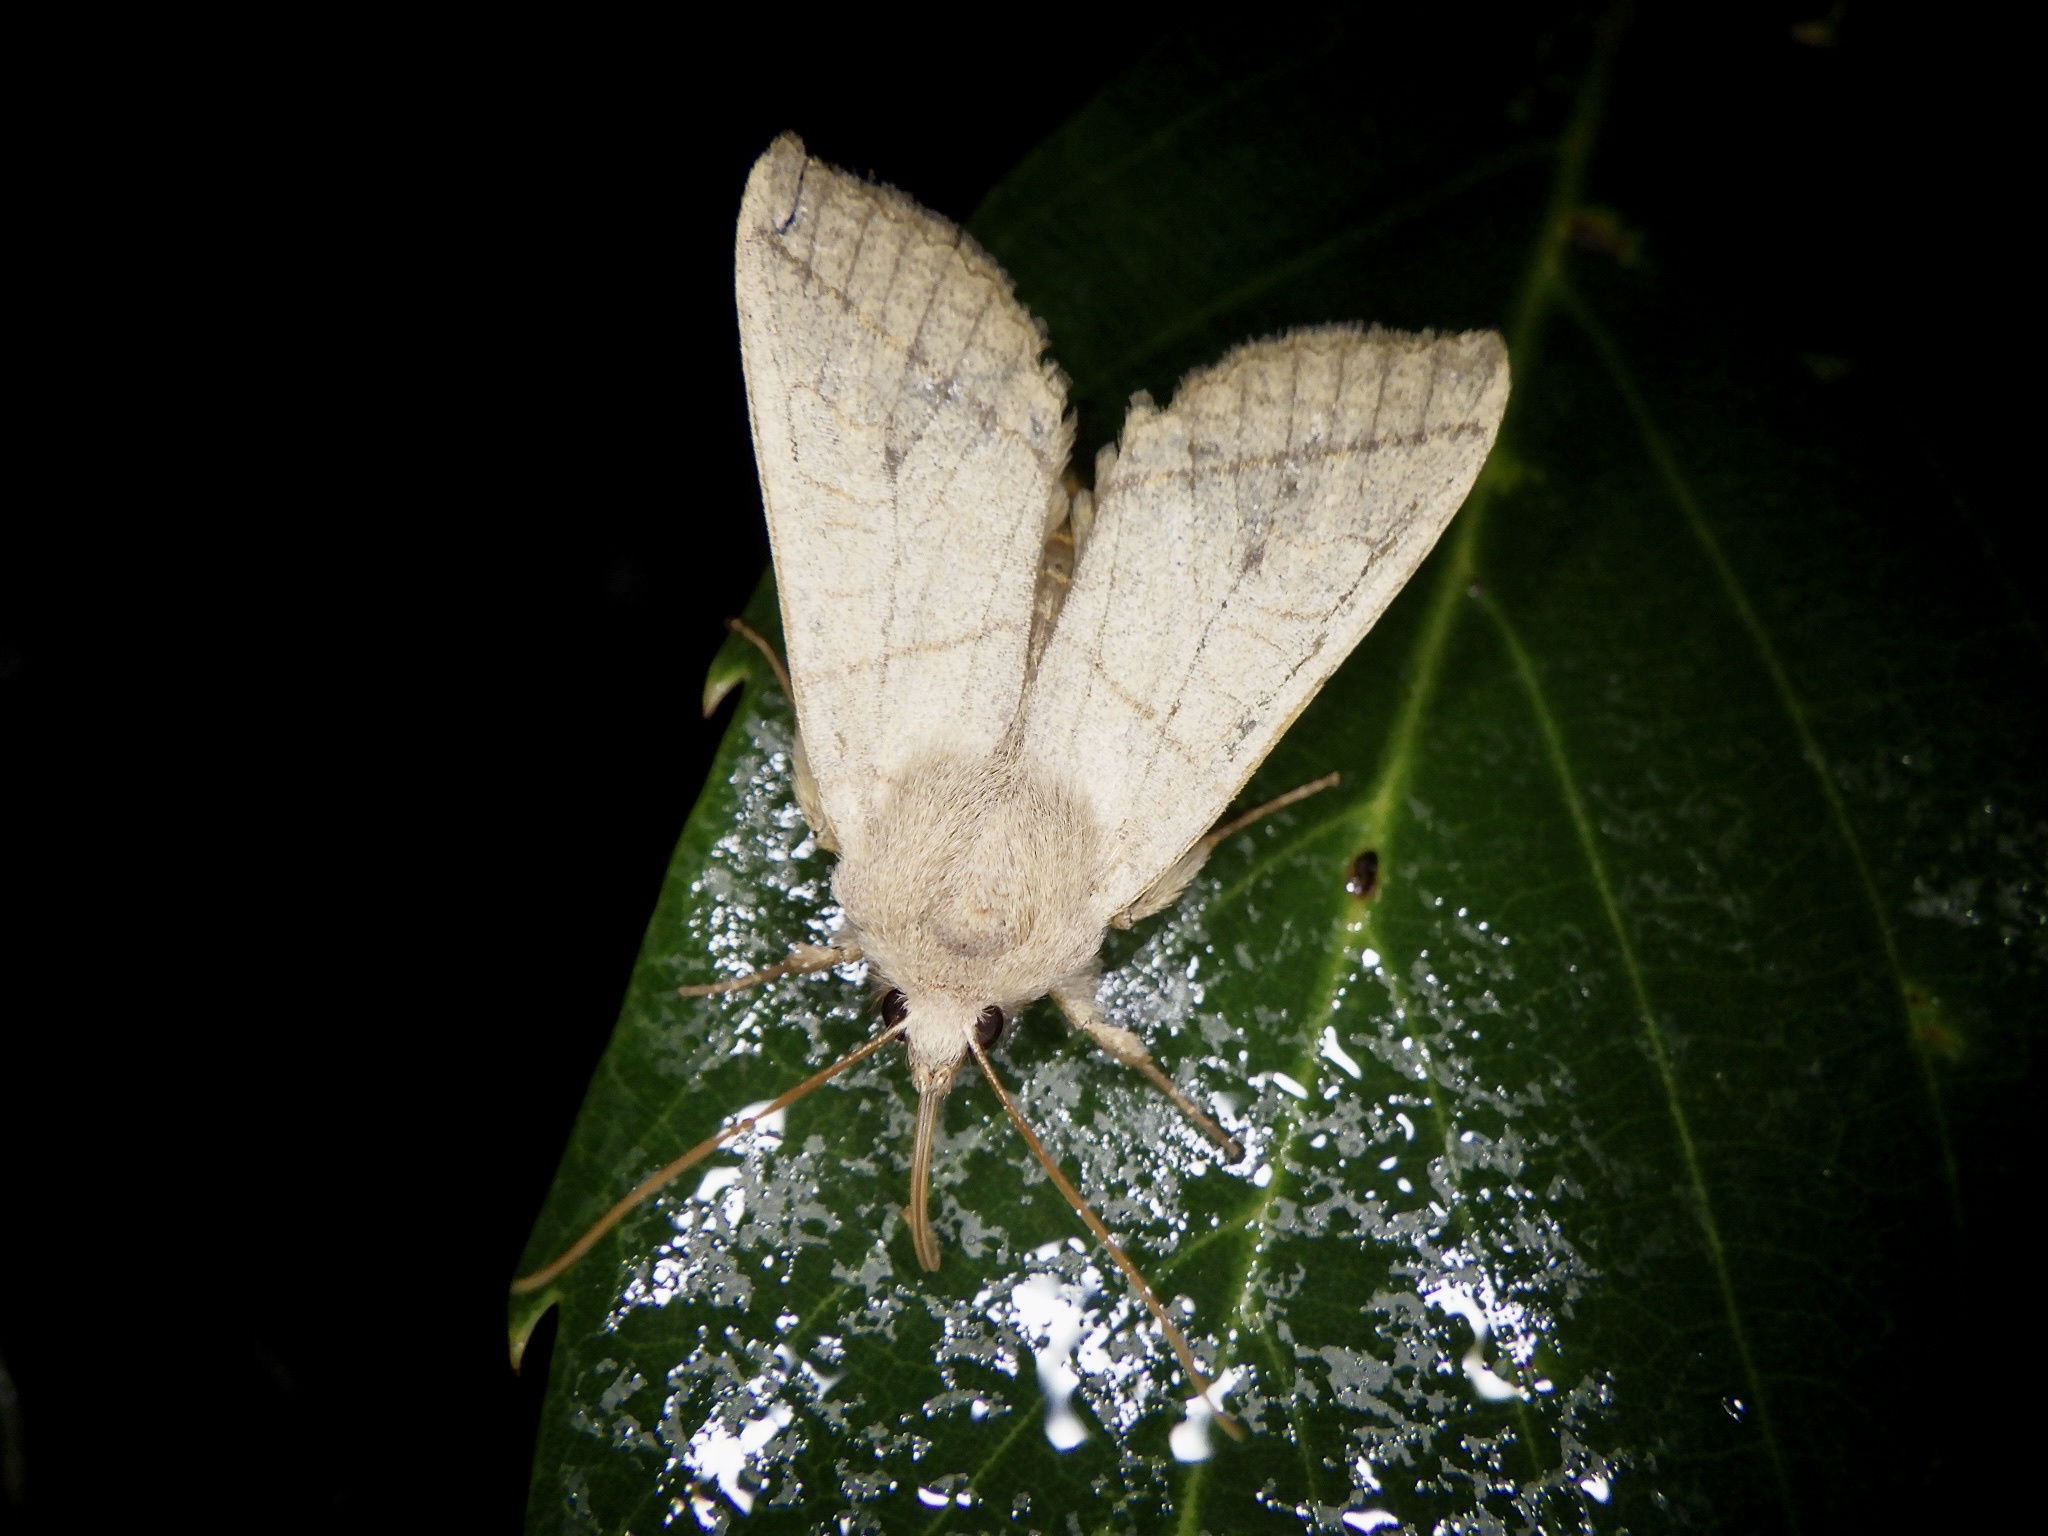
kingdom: Animalia
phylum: Arthropoda
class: Insecta
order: Lepidoptera
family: Noctuidae
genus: Telorta
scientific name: Telorta divergens
